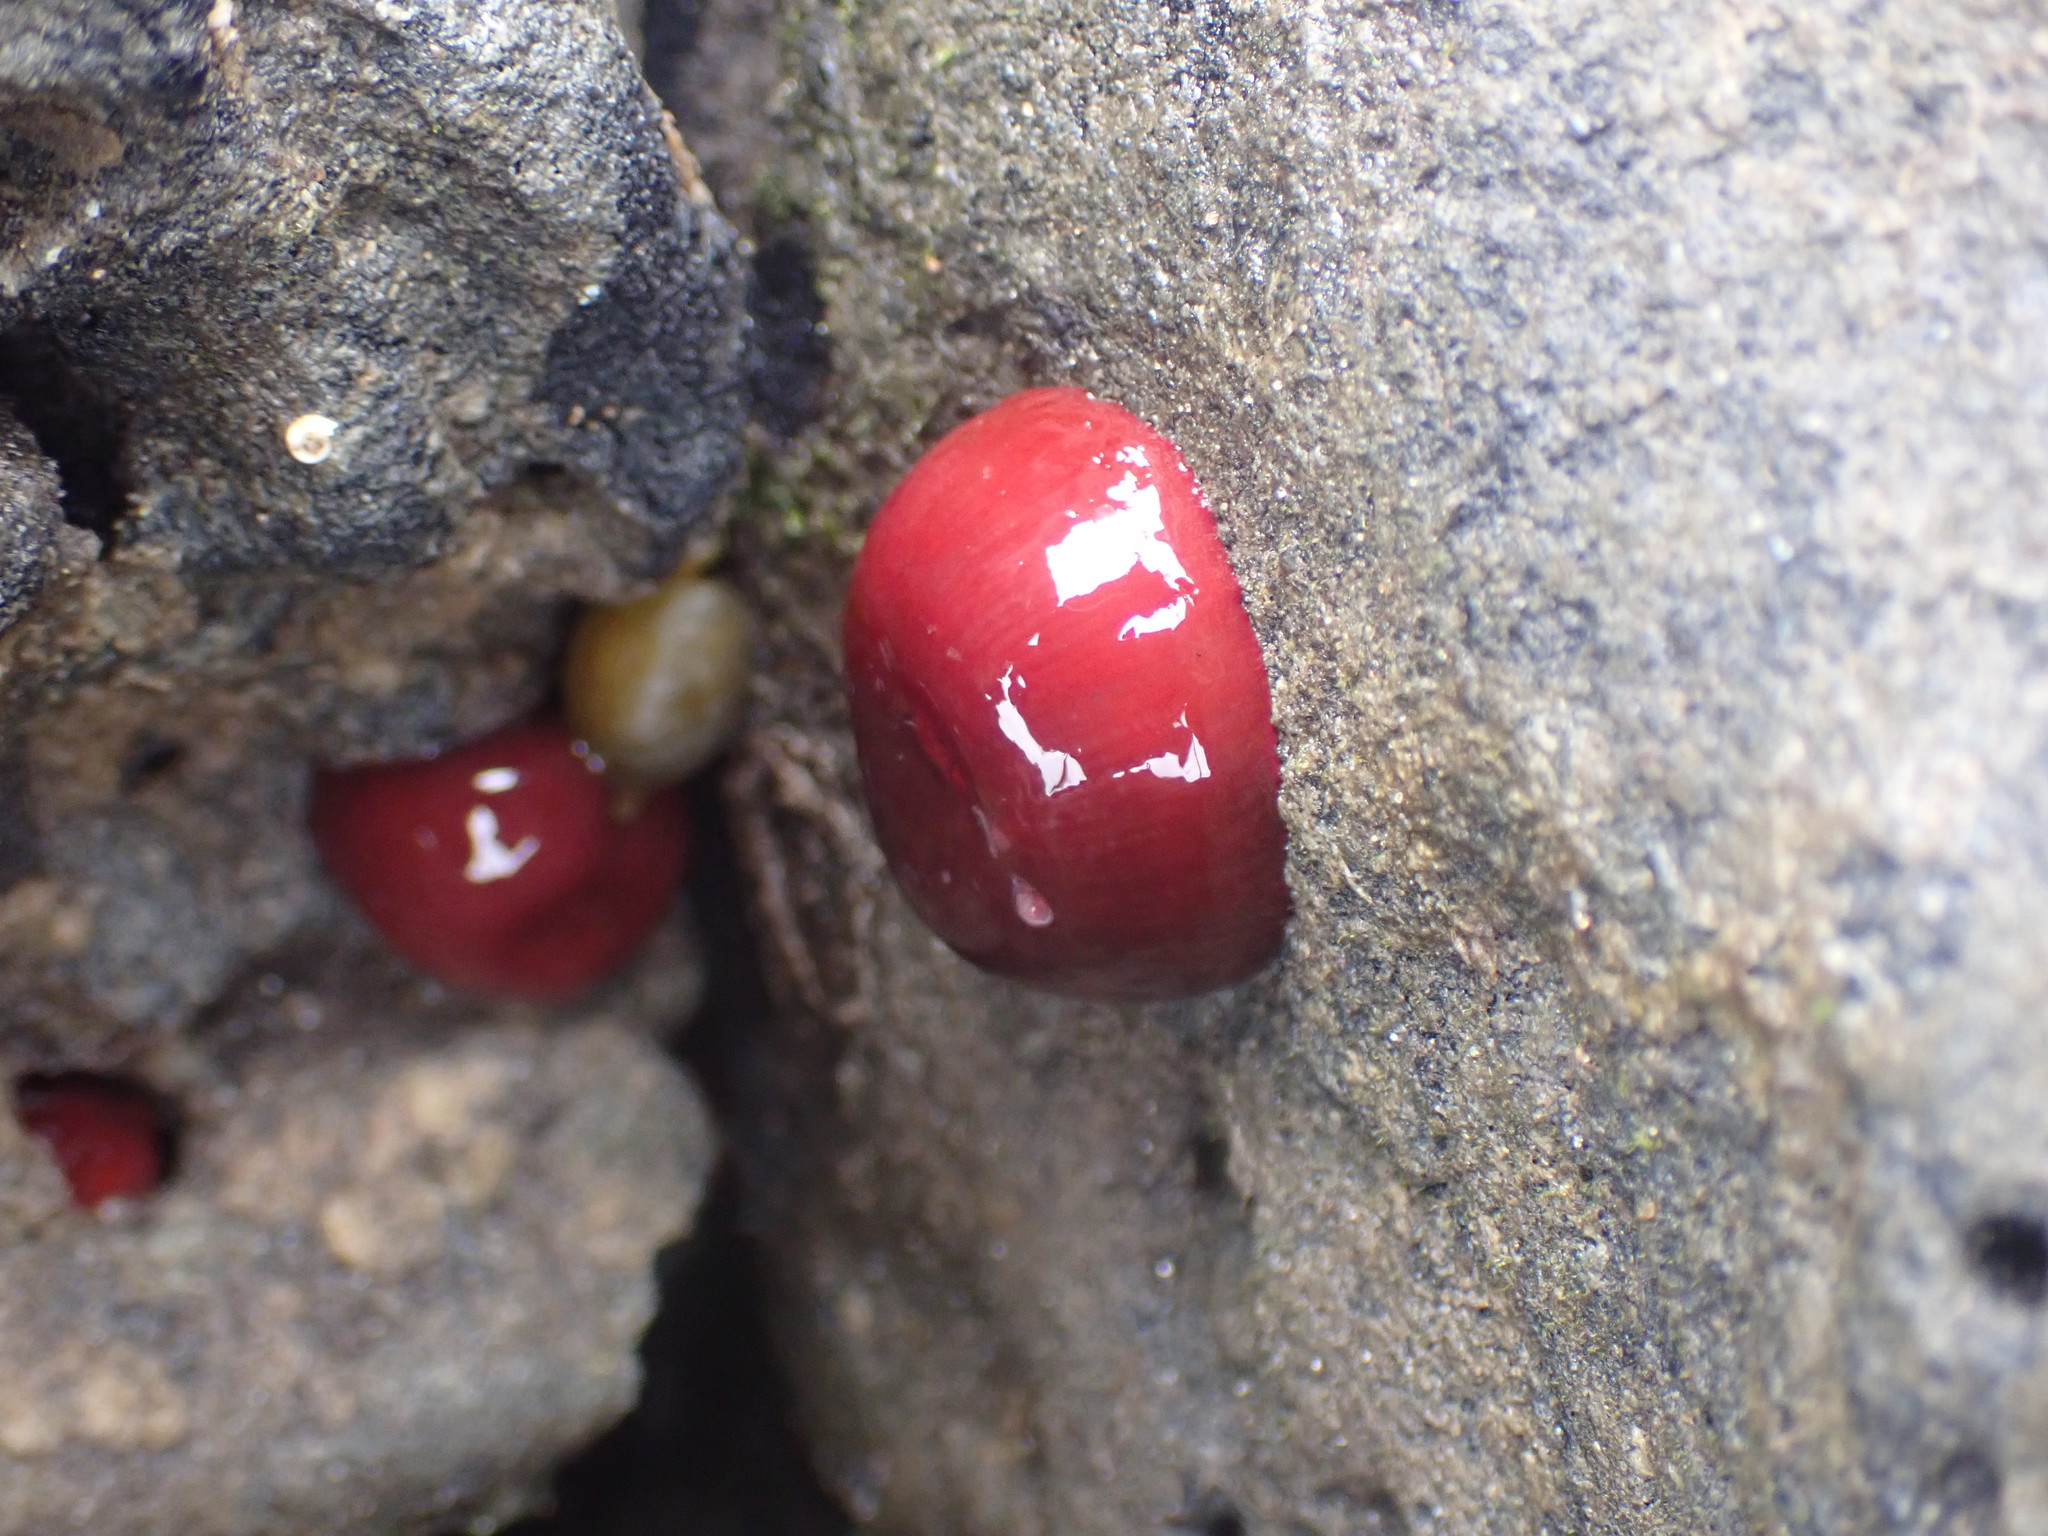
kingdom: Animalia
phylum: Cnidaria
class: Anthozoa
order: Actiniaria
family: Actiniidae
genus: Actinia
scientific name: Actinia tenebrosa
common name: Waratah anemone
